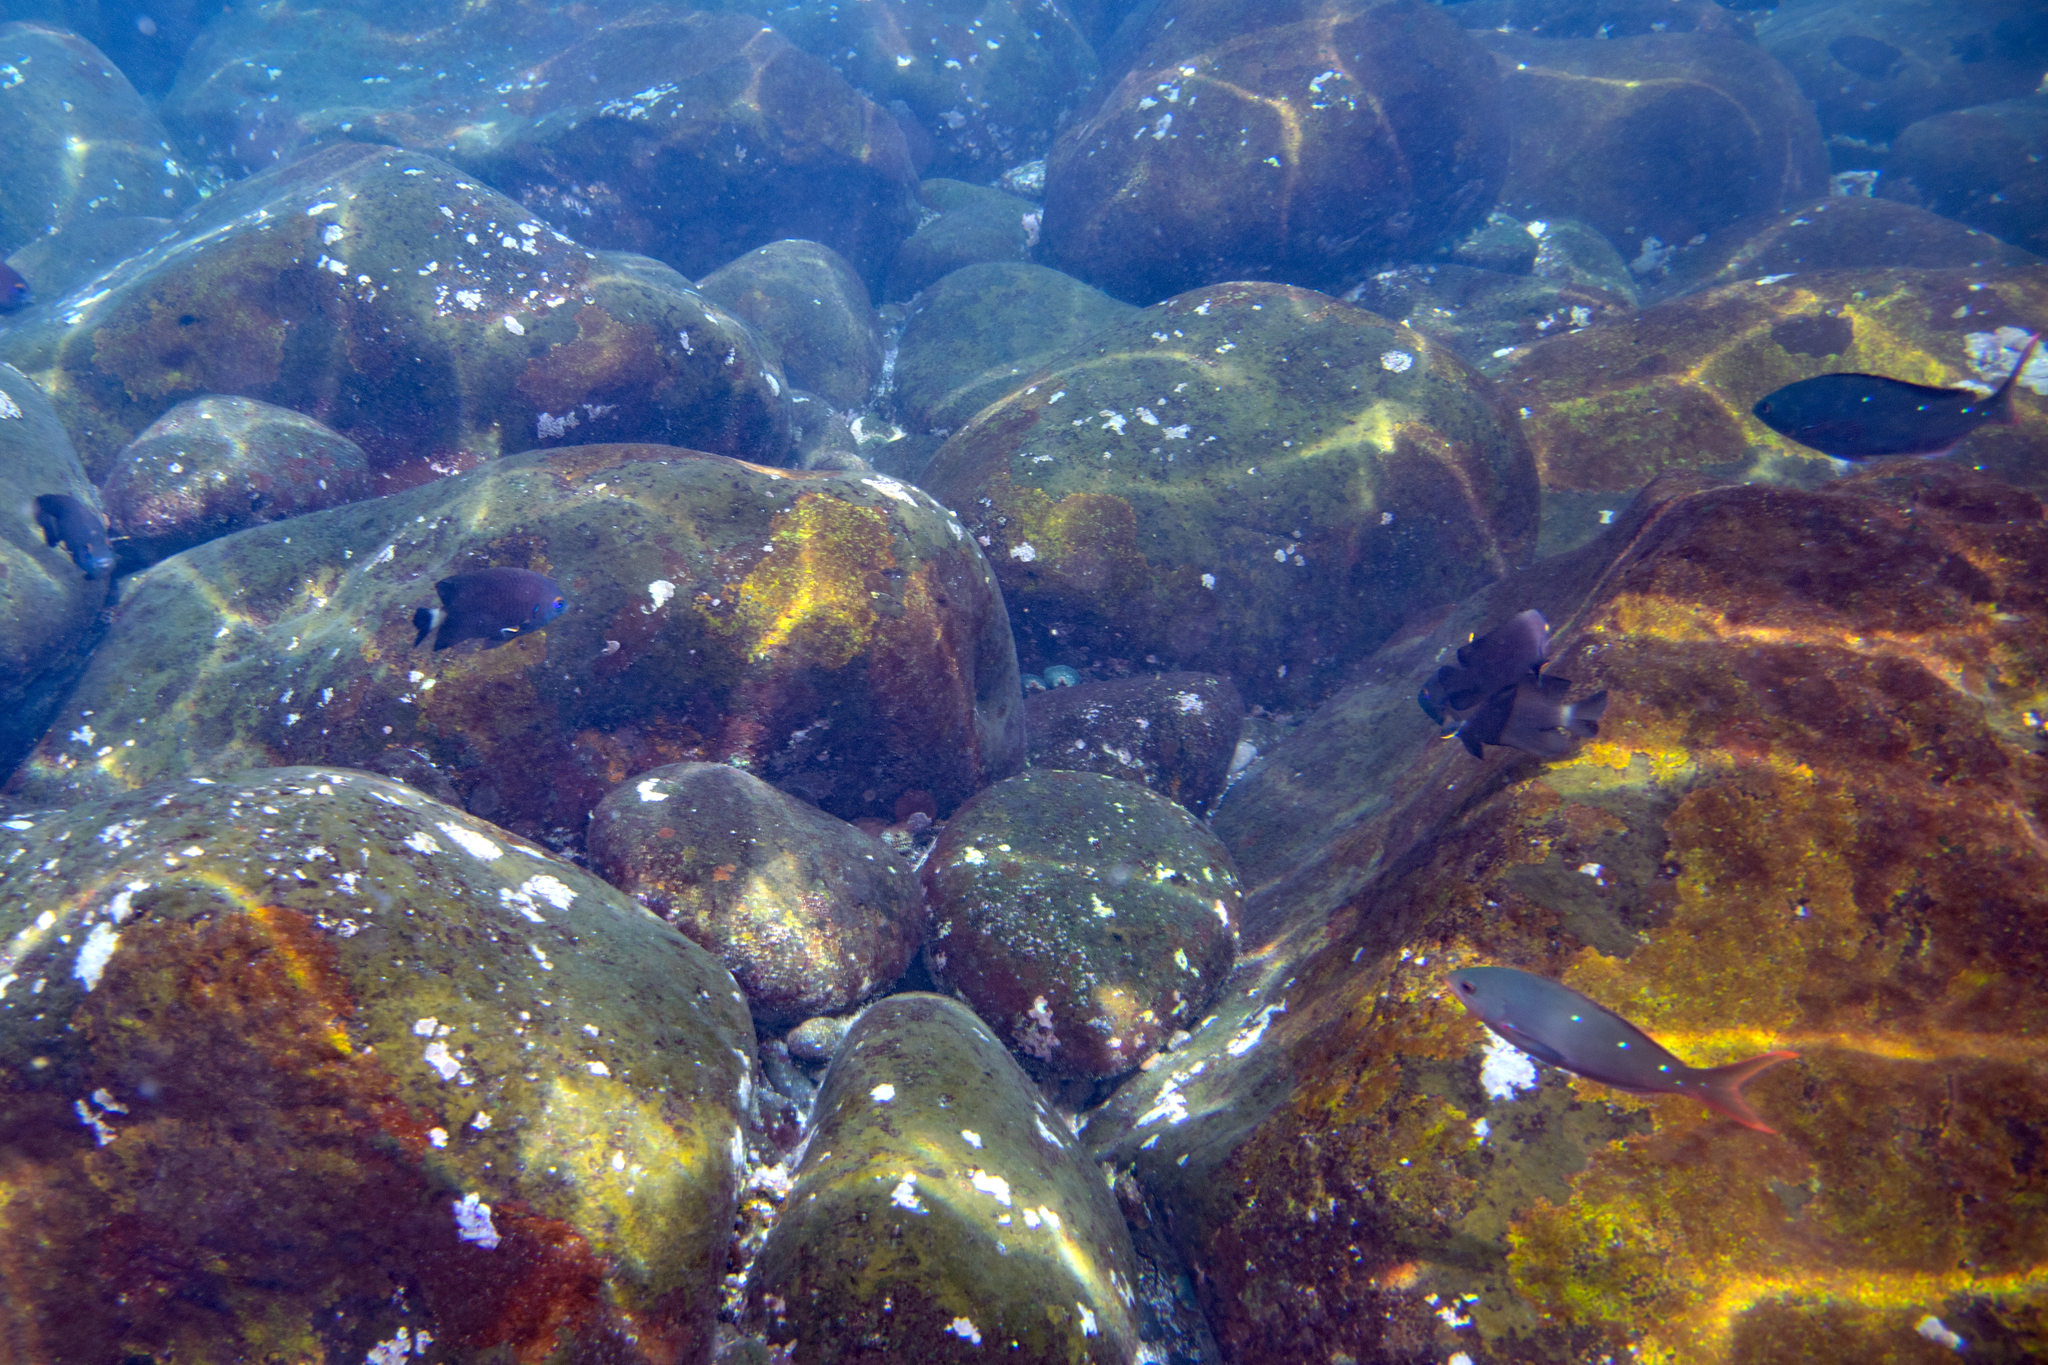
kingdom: Animalia
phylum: Chordata
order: Perciformes
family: Pomacentridae
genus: Stegastes
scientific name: Stegastes beebei
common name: Galapagos ringtail damselfish
